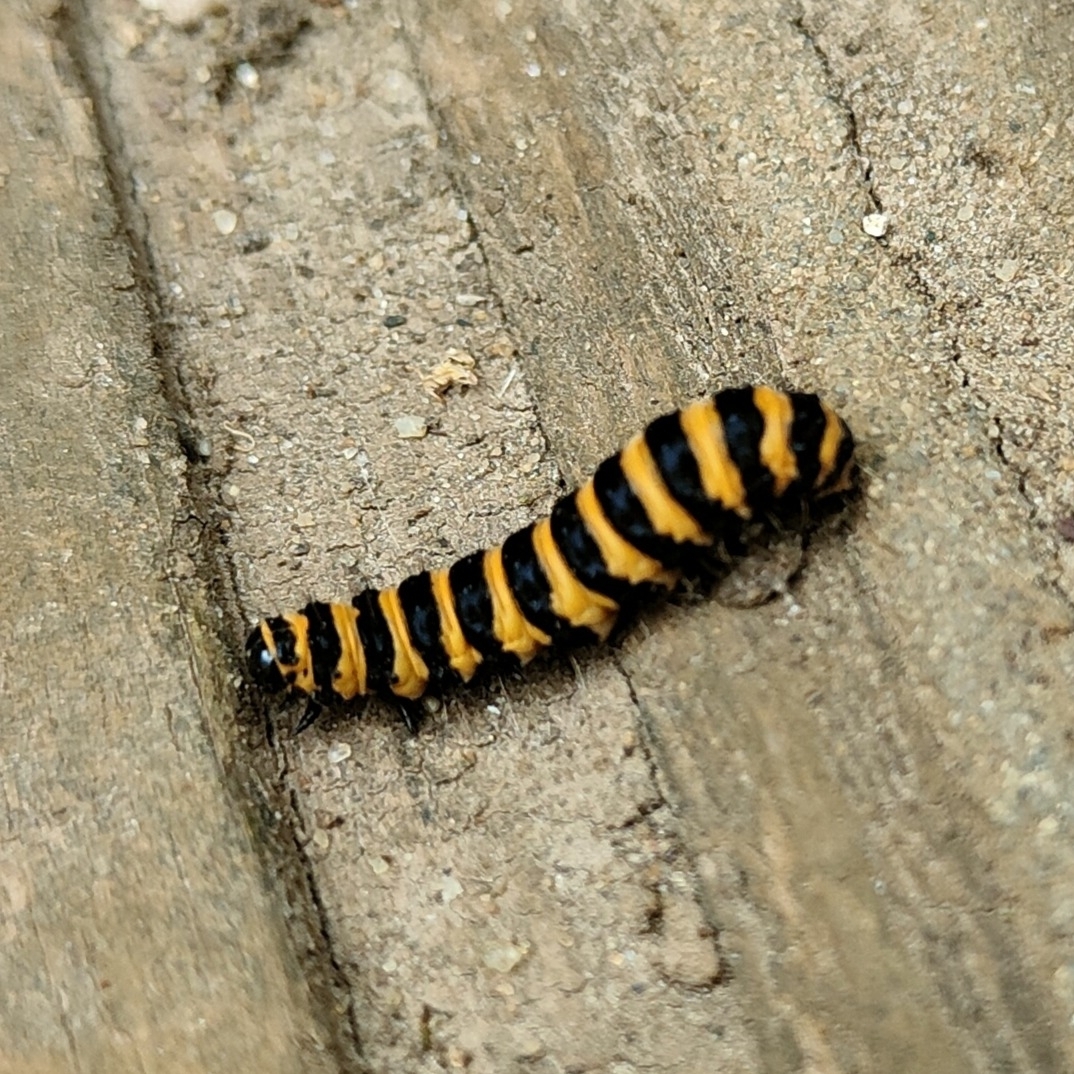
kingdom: Animalia
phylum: Arthropoda
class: Insecta
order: Lepidoptera
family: Erebidae
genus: Tyria
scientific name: Tyria jacobaeae
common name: Cinnabar
